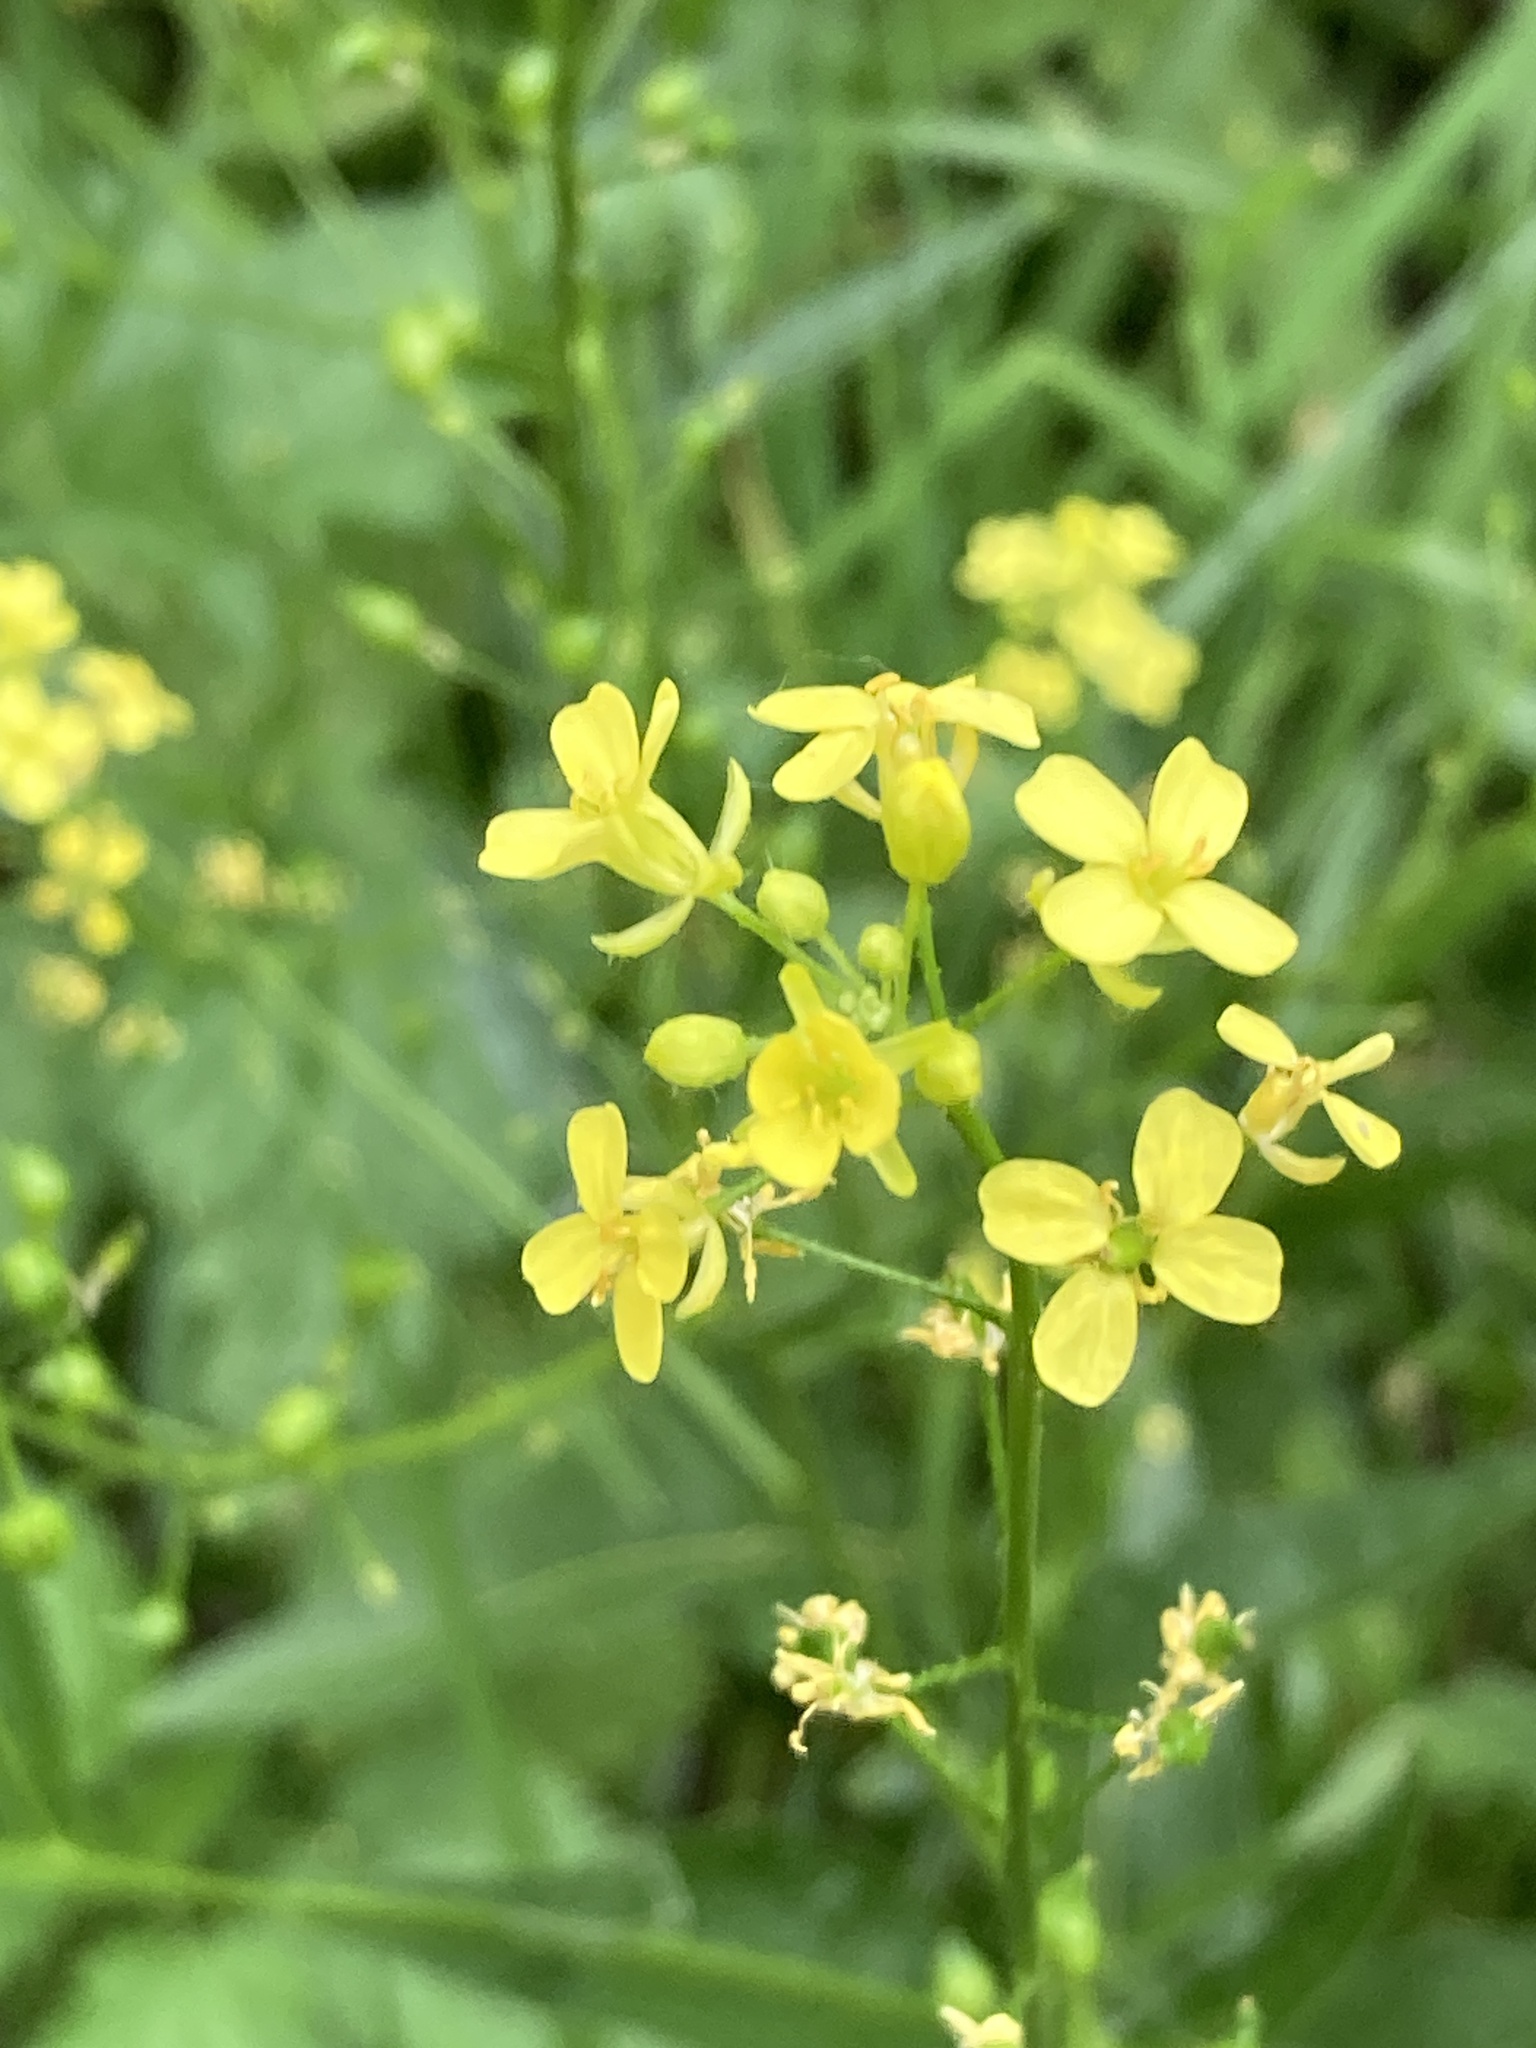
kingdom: Plantae
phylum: Tracheophyta
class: Magnoliopsida
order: Brassicales
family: Brassicaceae
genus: Bunias
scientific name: Bunias orientalis
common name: Warty-cabbage
